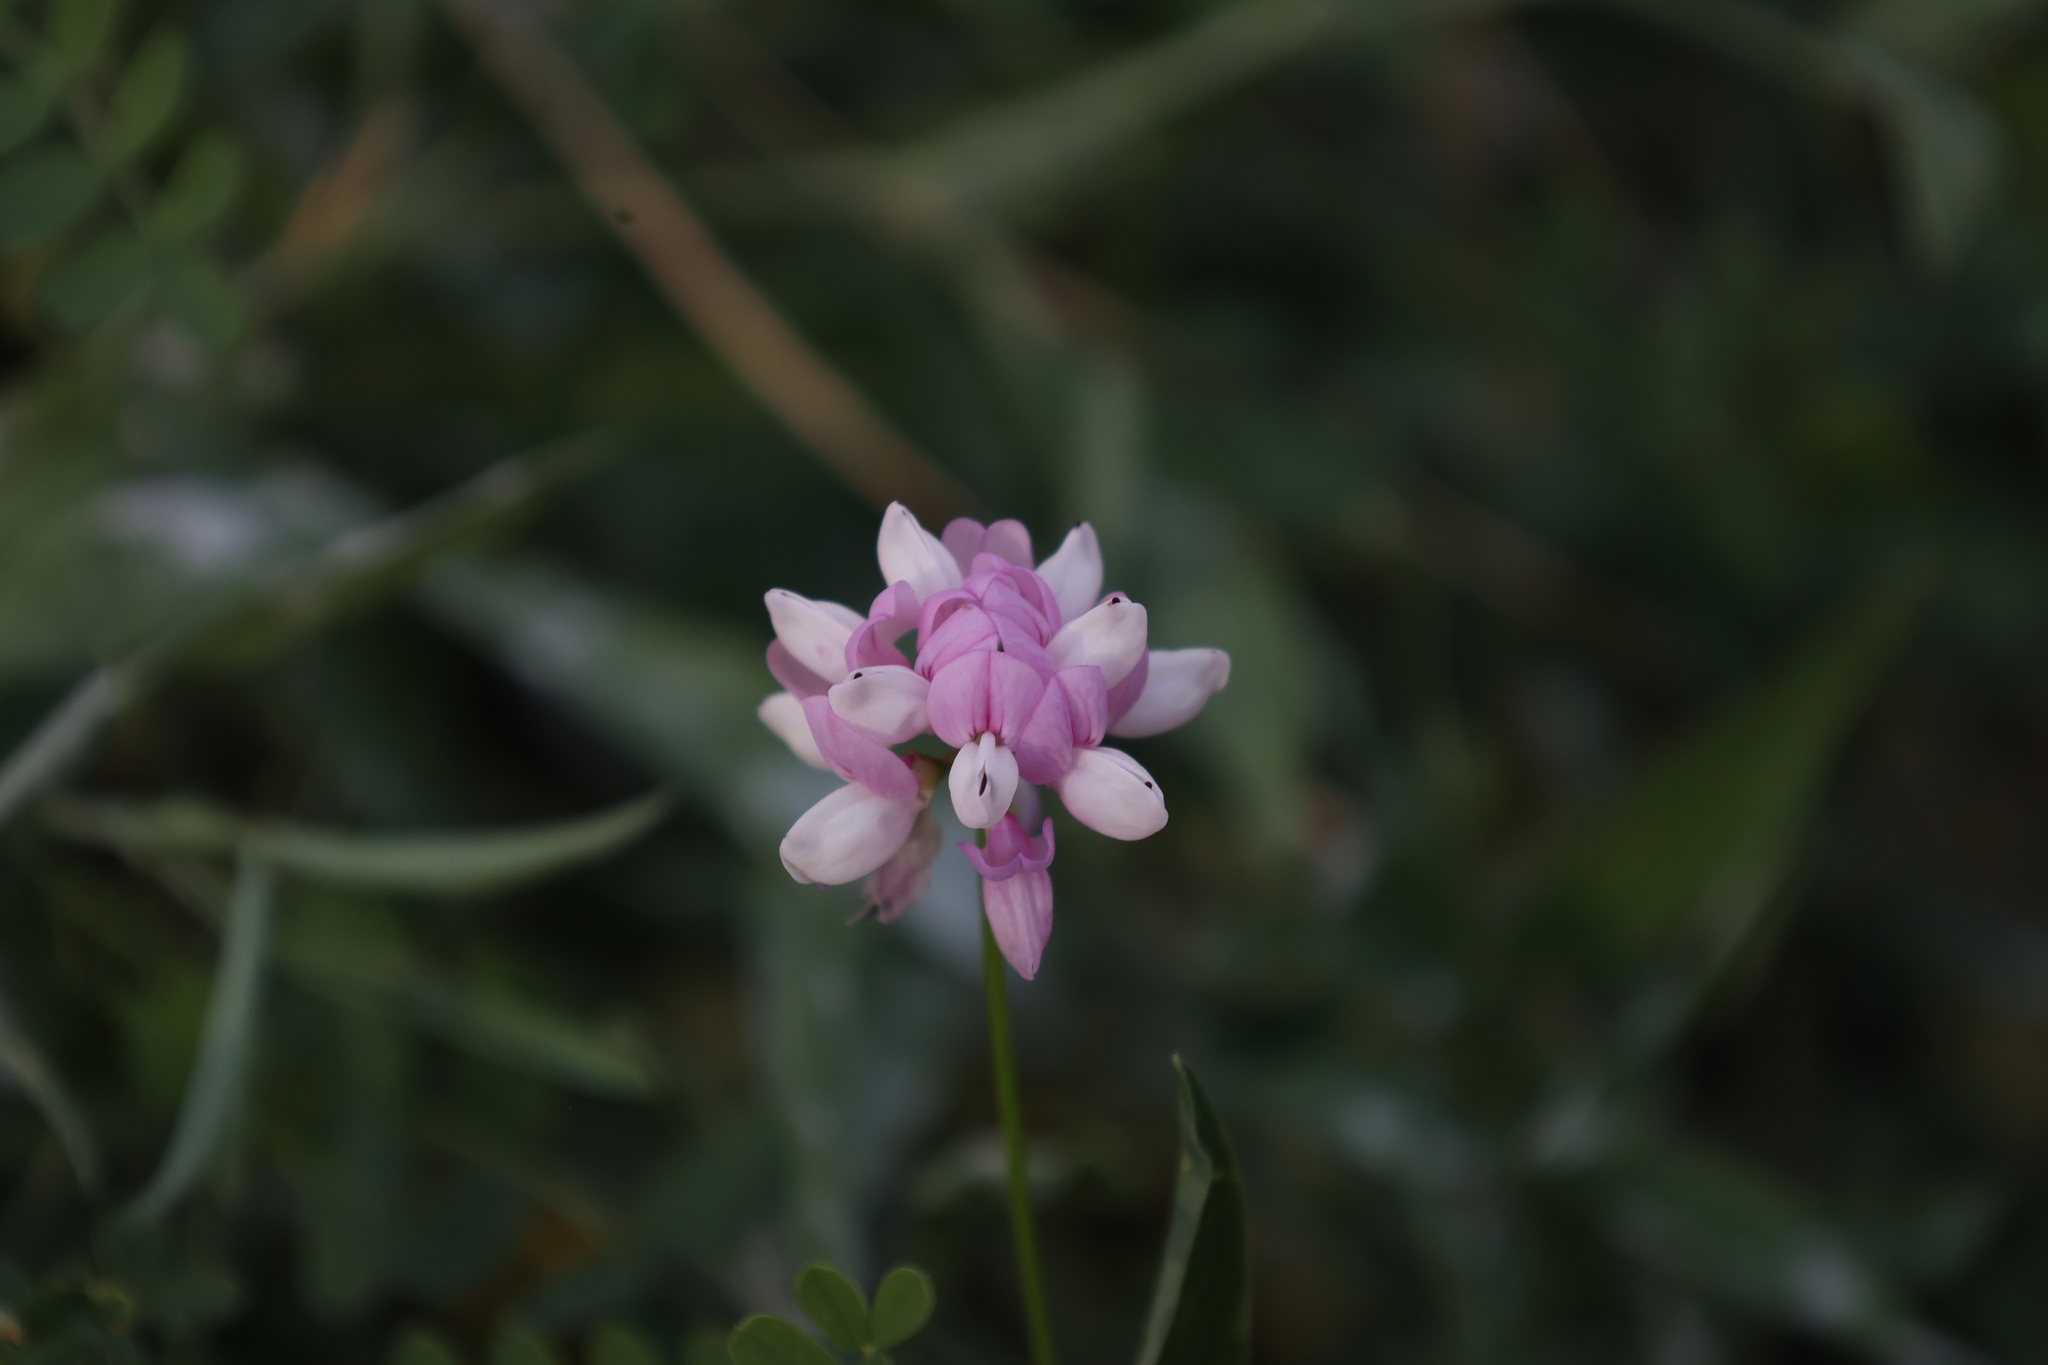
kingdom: Plantae
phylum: Tracheophyta
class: Magnoliopsida
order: Fabales
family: Fabaceae
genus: Coronilla
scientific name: Coronilla varia
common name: Crownvetch
